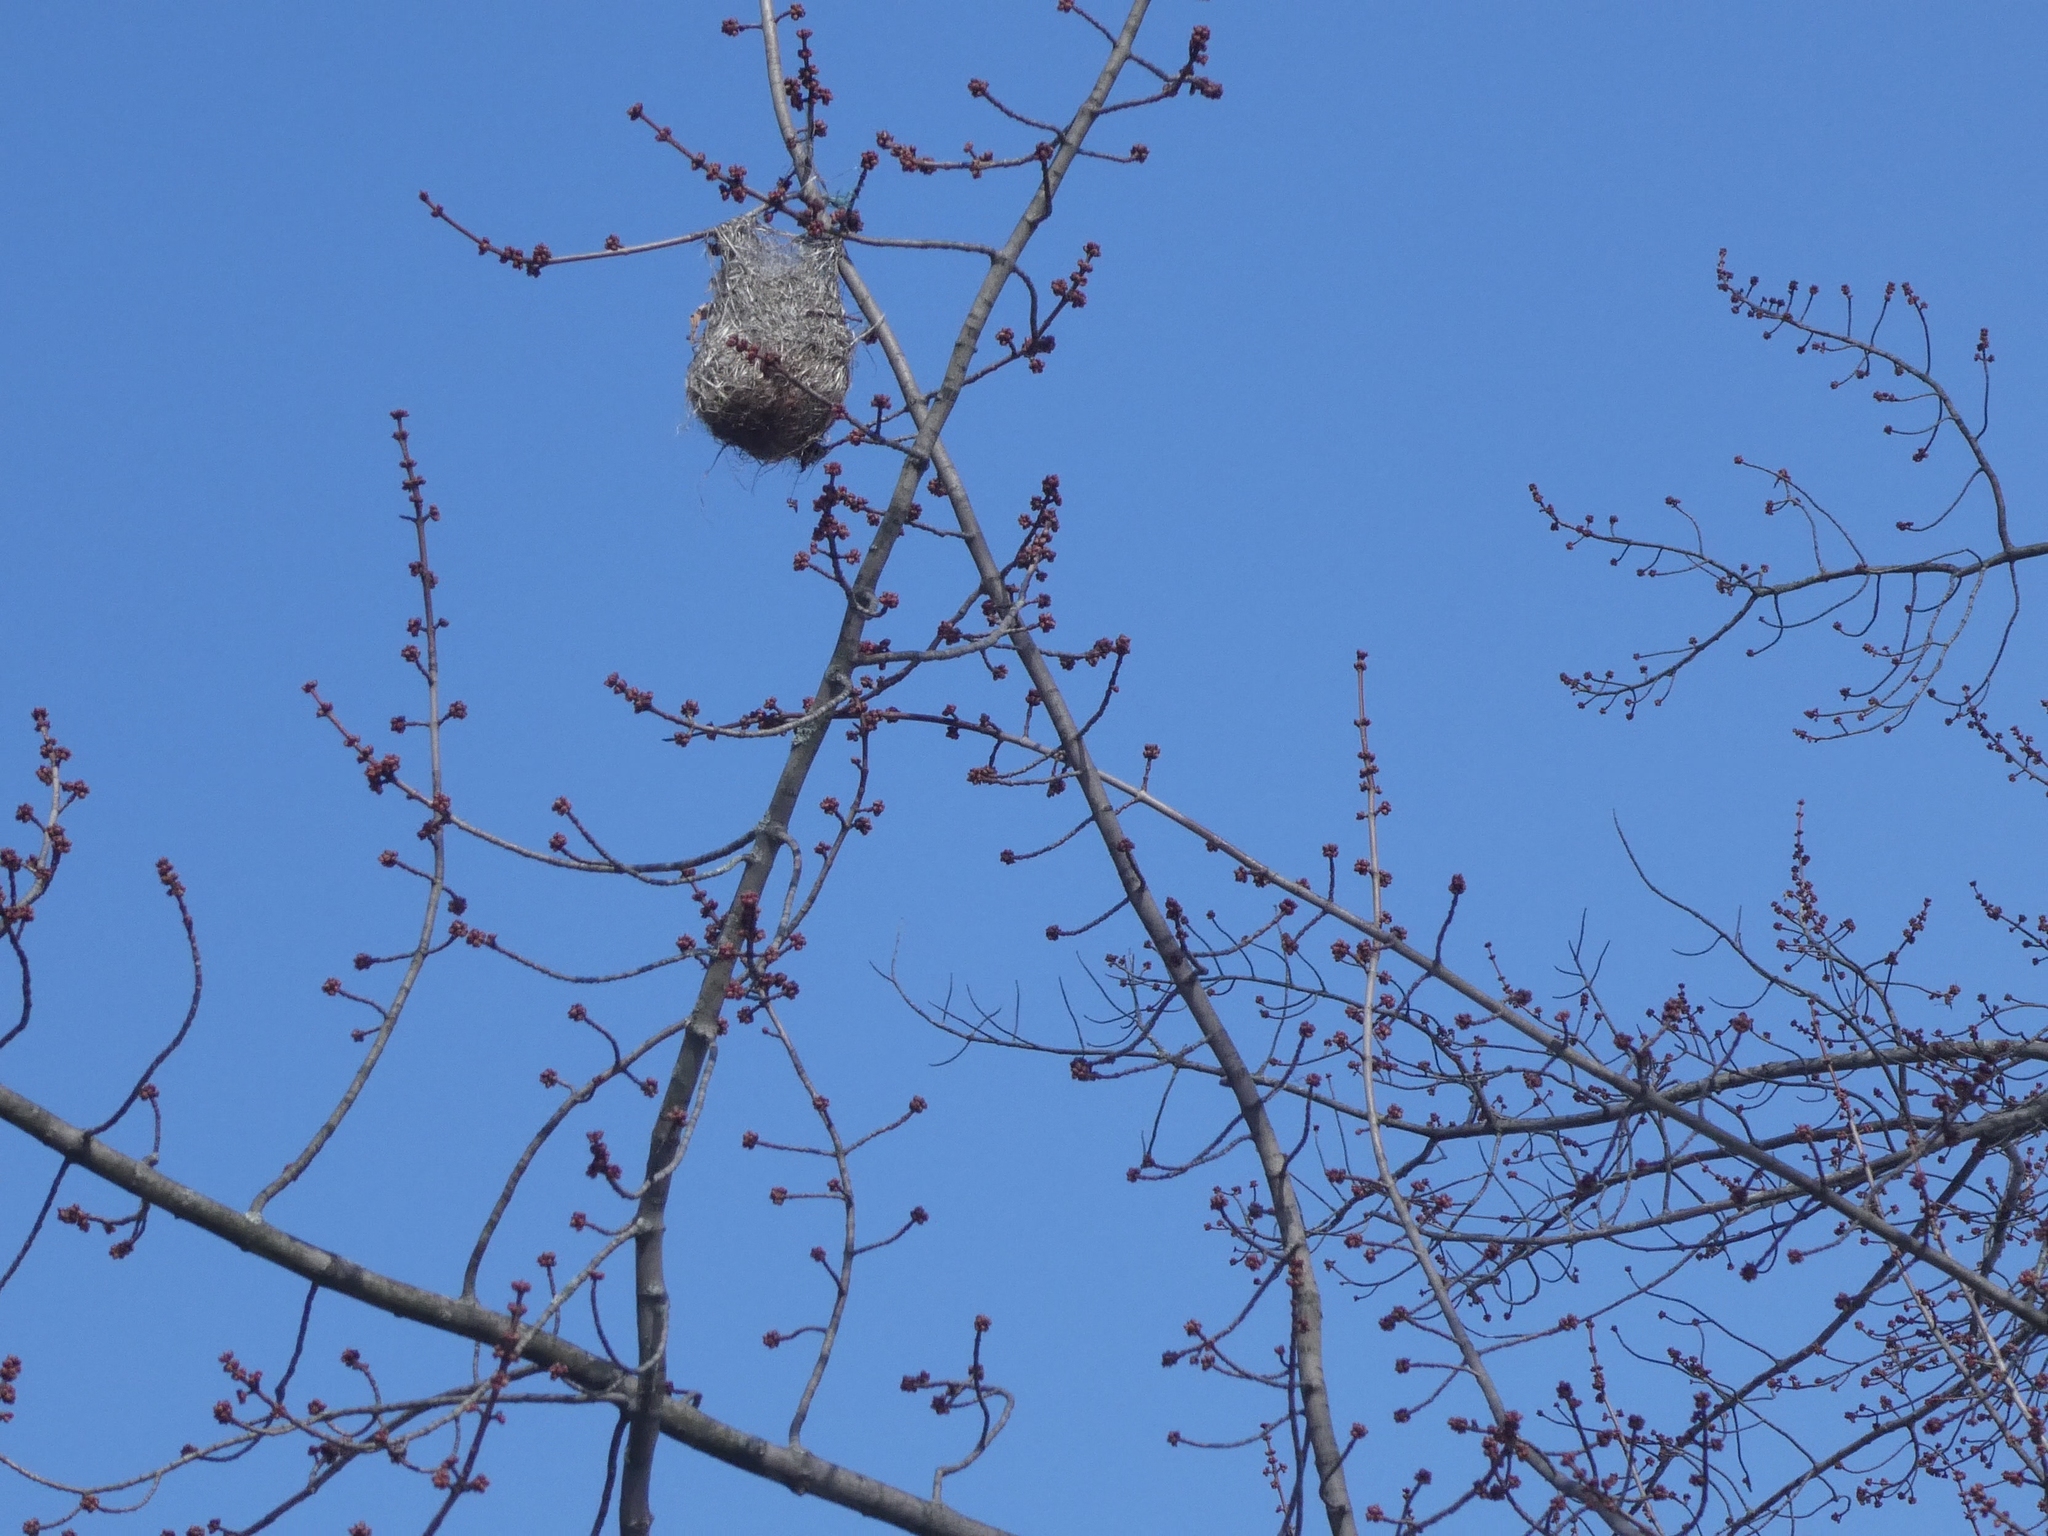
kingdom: Animalia
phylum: Chordata
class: Aves
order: Passeriformes
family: Icteridae
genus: Icterus
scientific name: Icterus galbula
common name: Baltimore oriole
